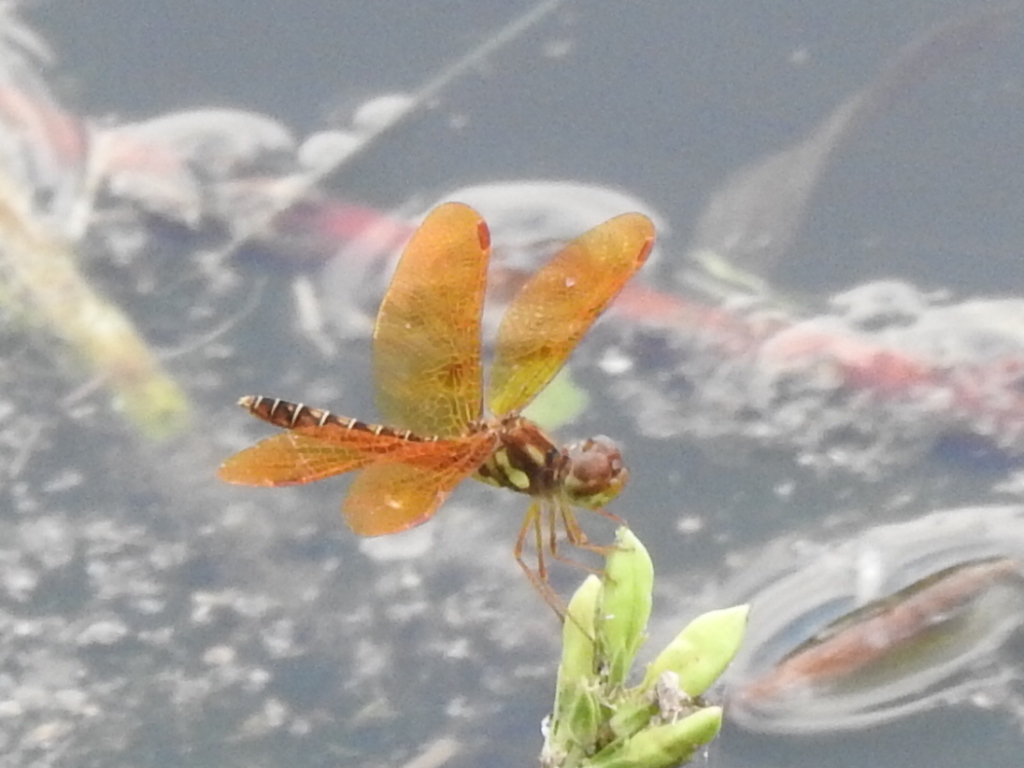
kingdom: Animalia
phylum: Arthropoda
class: Insecta
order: Odonata
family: Libellulidae
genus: Perithemis
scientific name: Perithemis tenera
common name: Eastern amberwing
